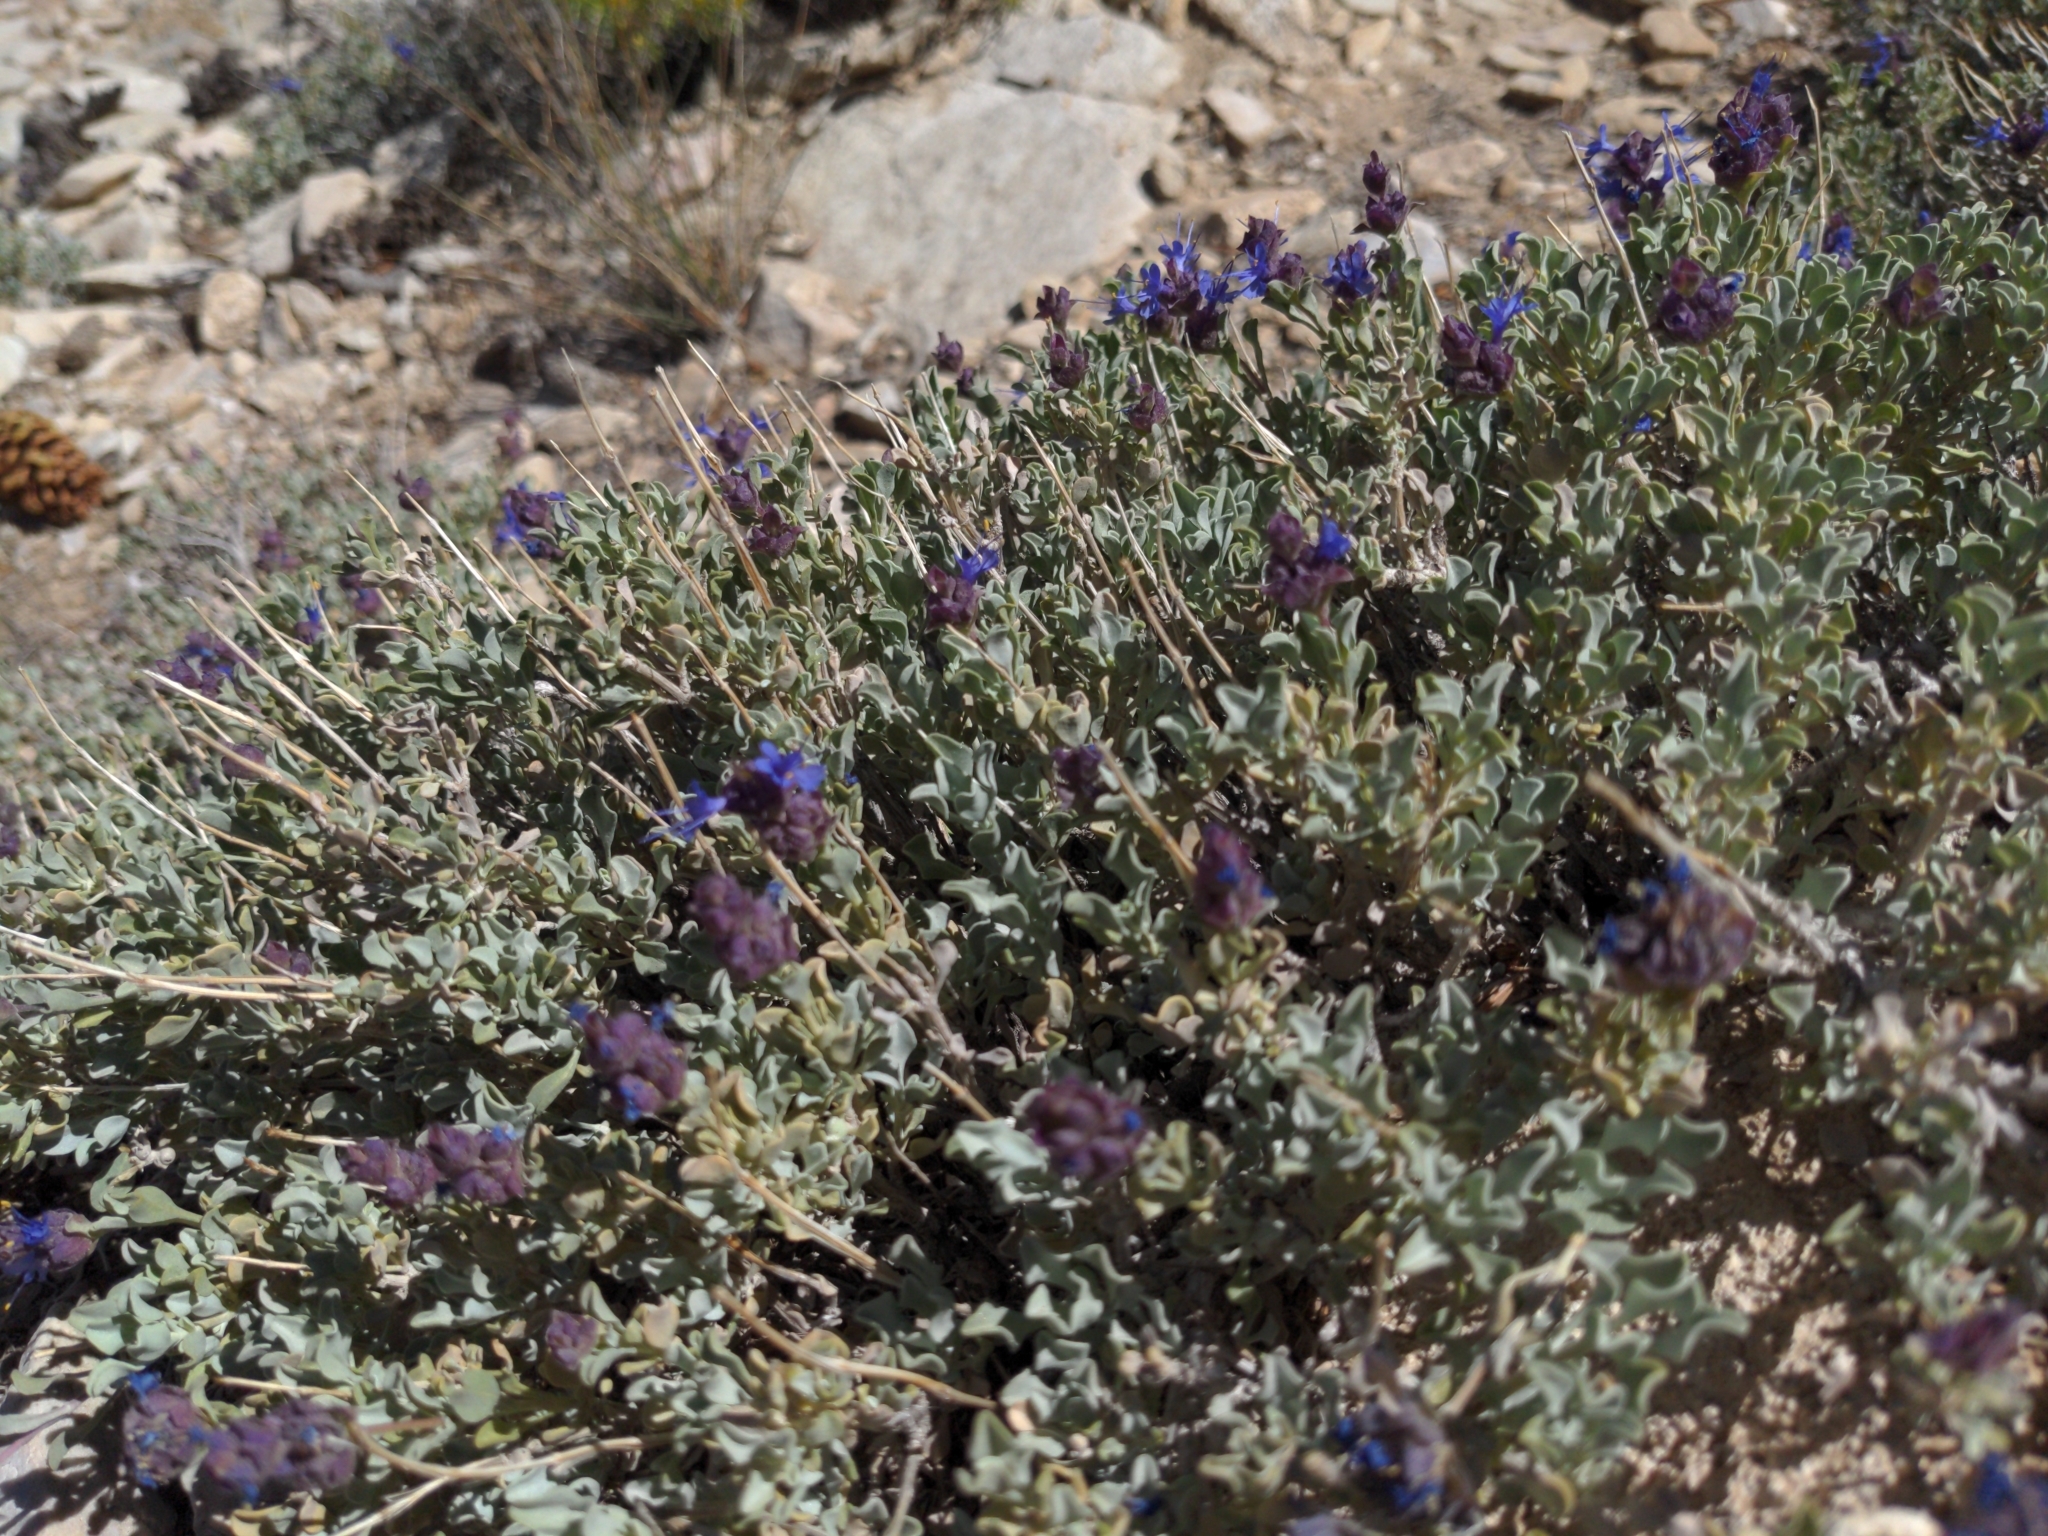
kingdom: Plantae
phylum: Tracheophyta
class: Magnoliopsida
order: Lamiales
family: Lamiaceae
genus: Salvia
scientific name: Salvia dorrii
